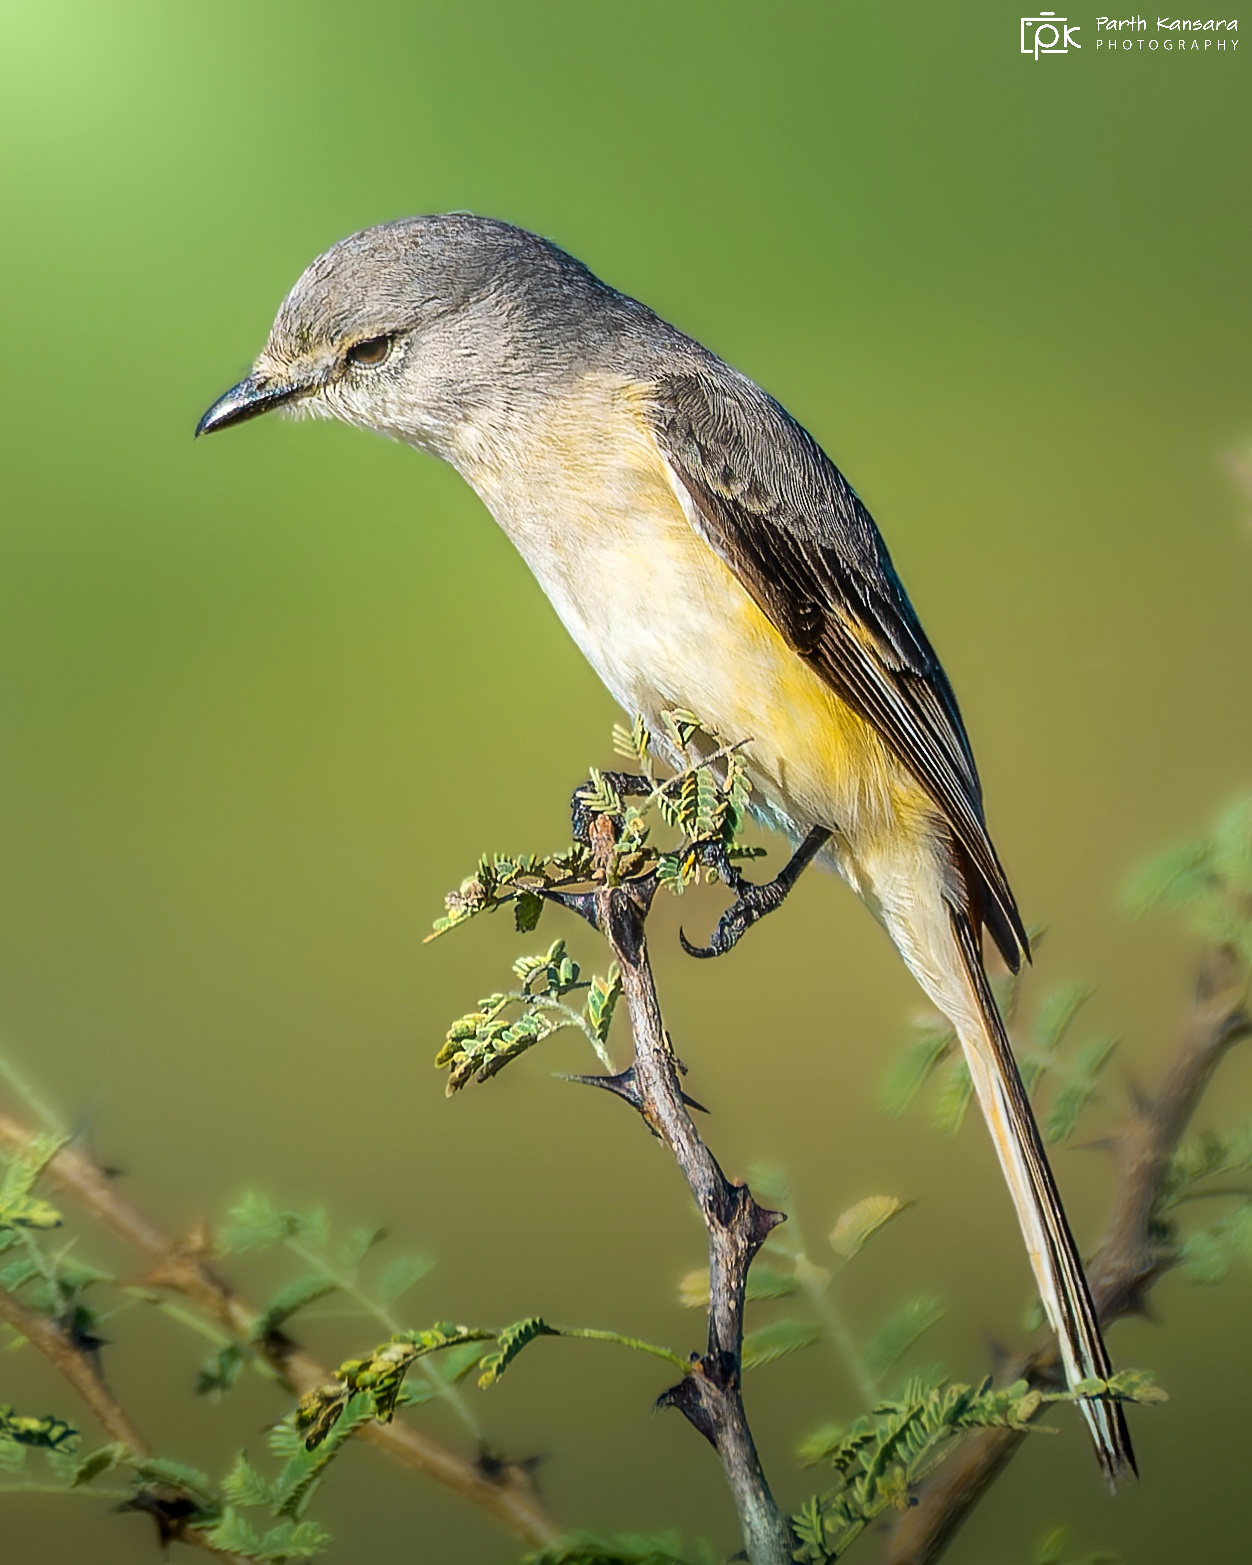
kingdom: Animalia
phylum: Chordata
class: Aves
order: Passeriformes
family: Campephagidae
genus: Pericrocotus
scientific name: Pericrocotus cinnamomeus
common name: Small minivet
